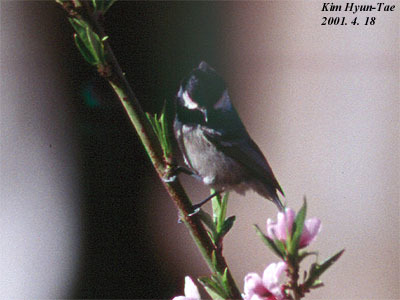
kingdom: Animalia
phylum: Chordata
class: Aves
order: Passeriformes
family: Paridae
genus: Periparus
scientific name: Periparus ater
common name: Coal tit
